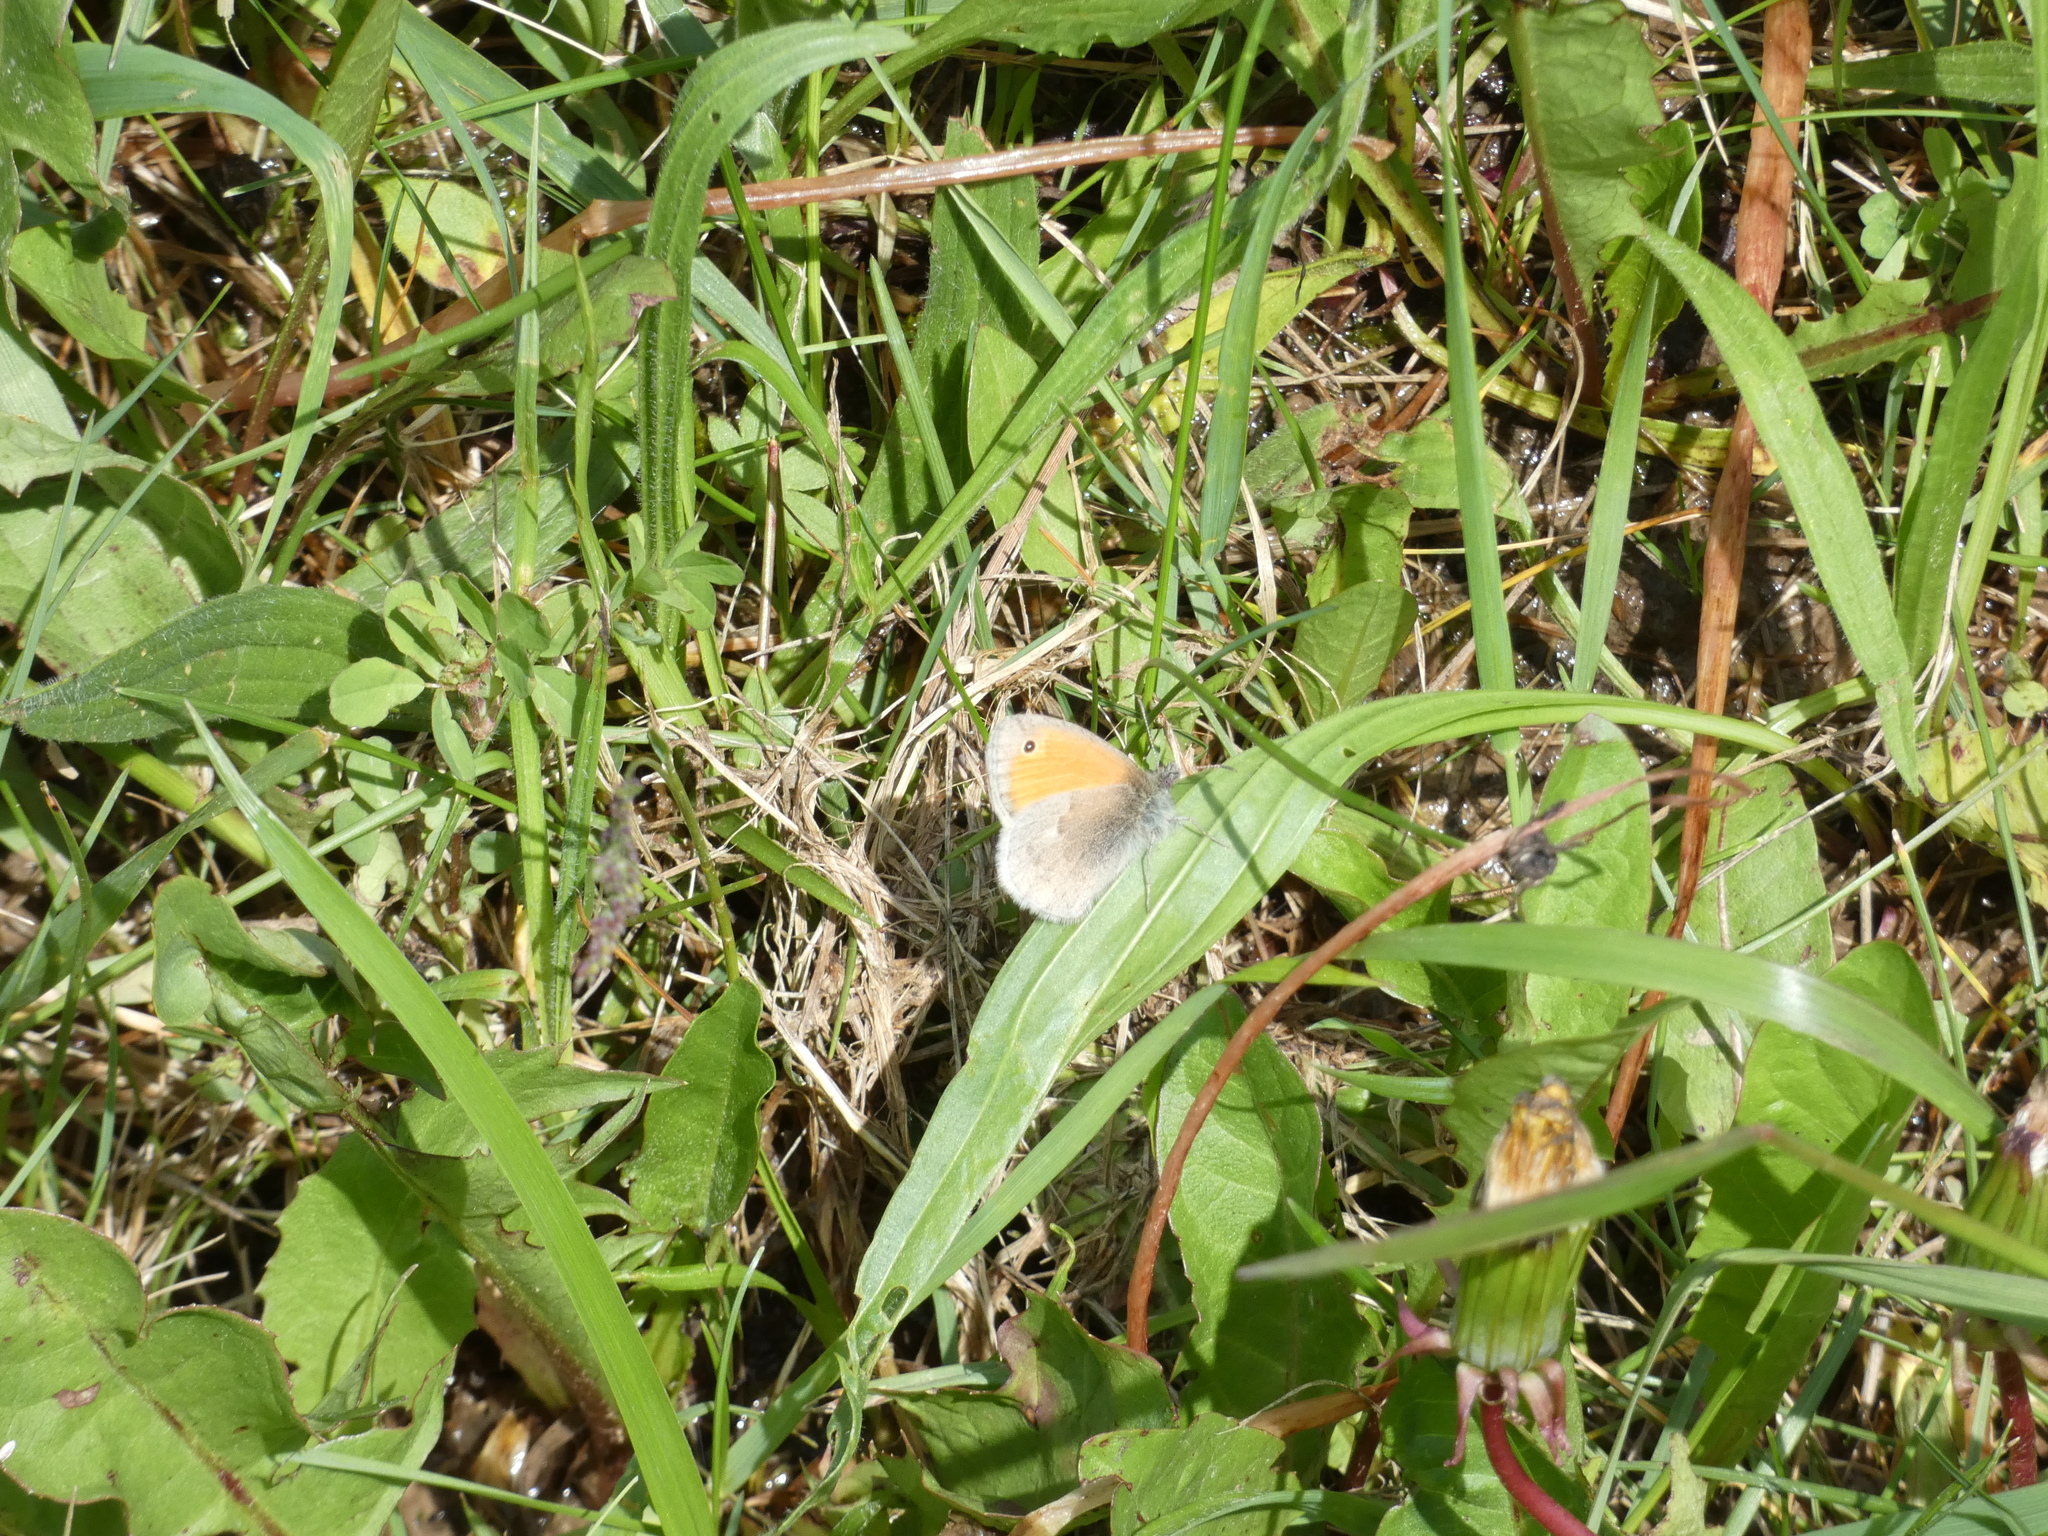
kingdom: Animalia
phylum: Arthropoda
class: Insecta
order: Lepidoptera
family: Nymphalidae
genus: Coenonympha
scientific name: Coenonympha pamphilus
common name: Small heath
